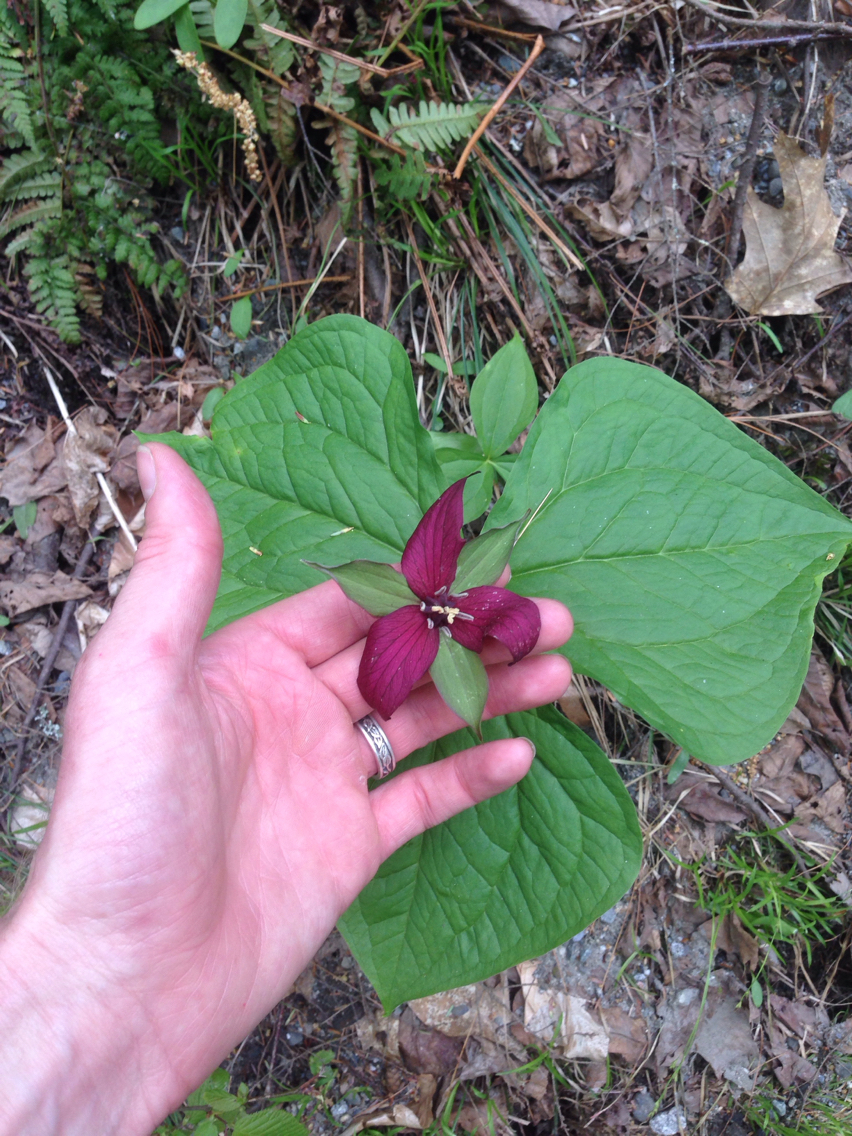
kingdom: Plantae
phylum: Tracheophyta
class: Liliopsida
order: Liliales
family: Melanthiaceae
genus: Trillium
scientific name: Trillium erectum
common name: Purple trillium
